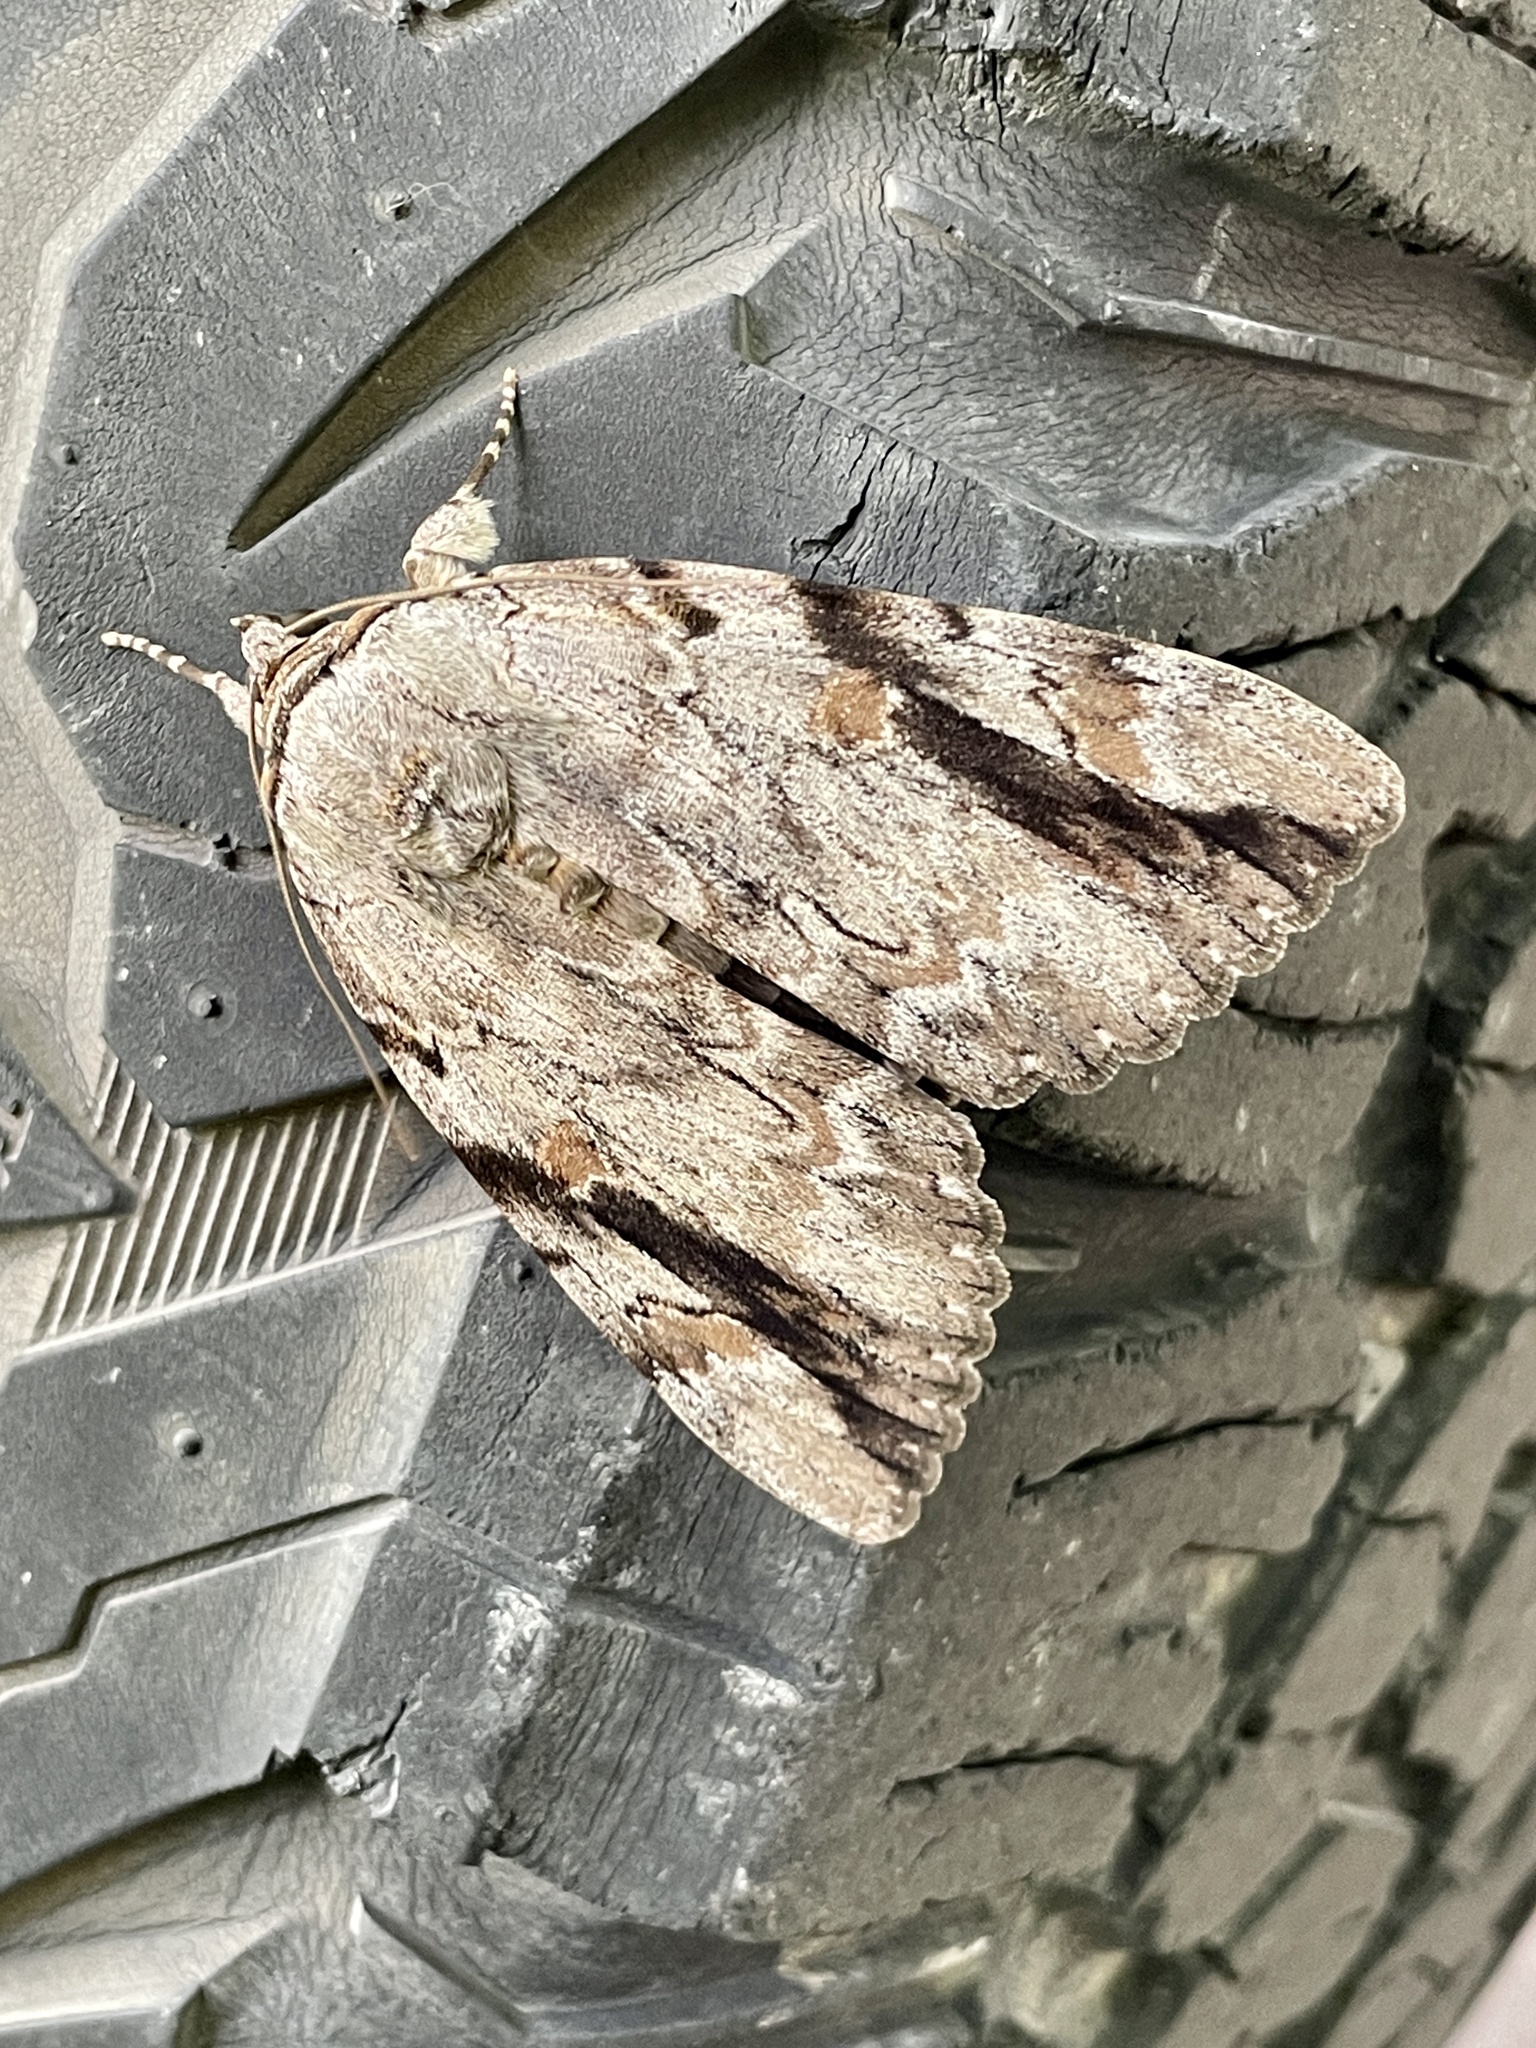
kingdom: Animalia
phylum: Arthropoda
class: Insecta
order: Lepidoptera
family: Erebidae
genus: Catocala
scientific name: Catocala maestosa
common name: Sad underwing
